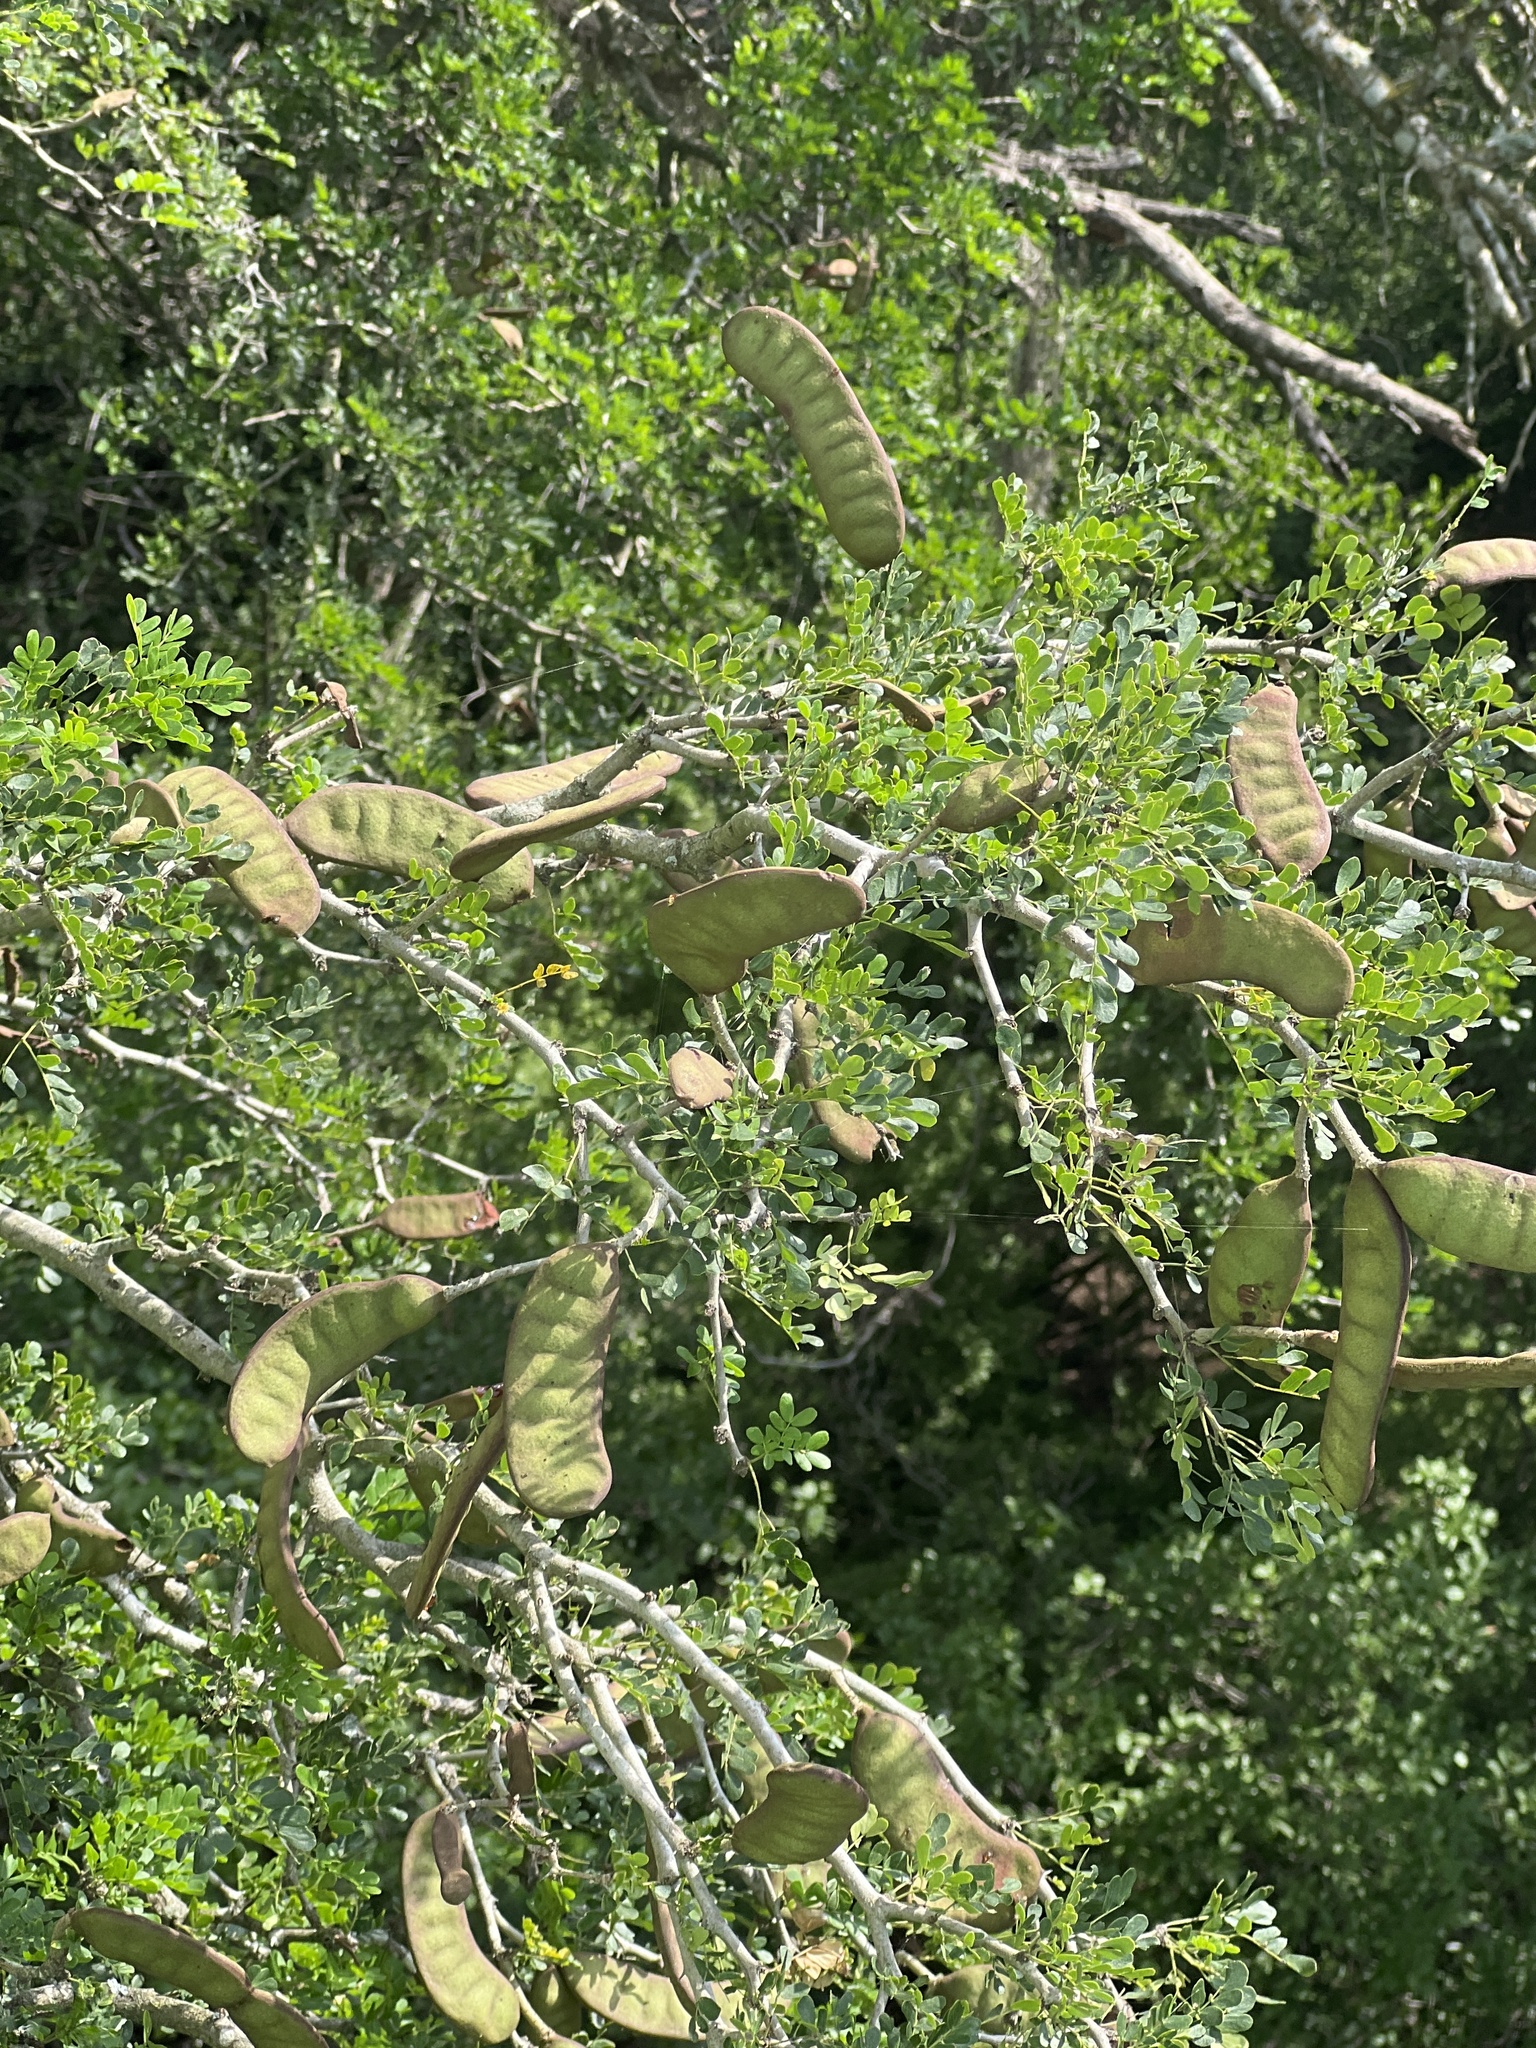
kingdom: Plantae
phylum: Tracheophyta
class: Magnoliopsida
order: Fabales
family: Fabaceae
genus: Ebenopsis
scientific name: Ebenopsis ebano
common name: Ebony blackbead
